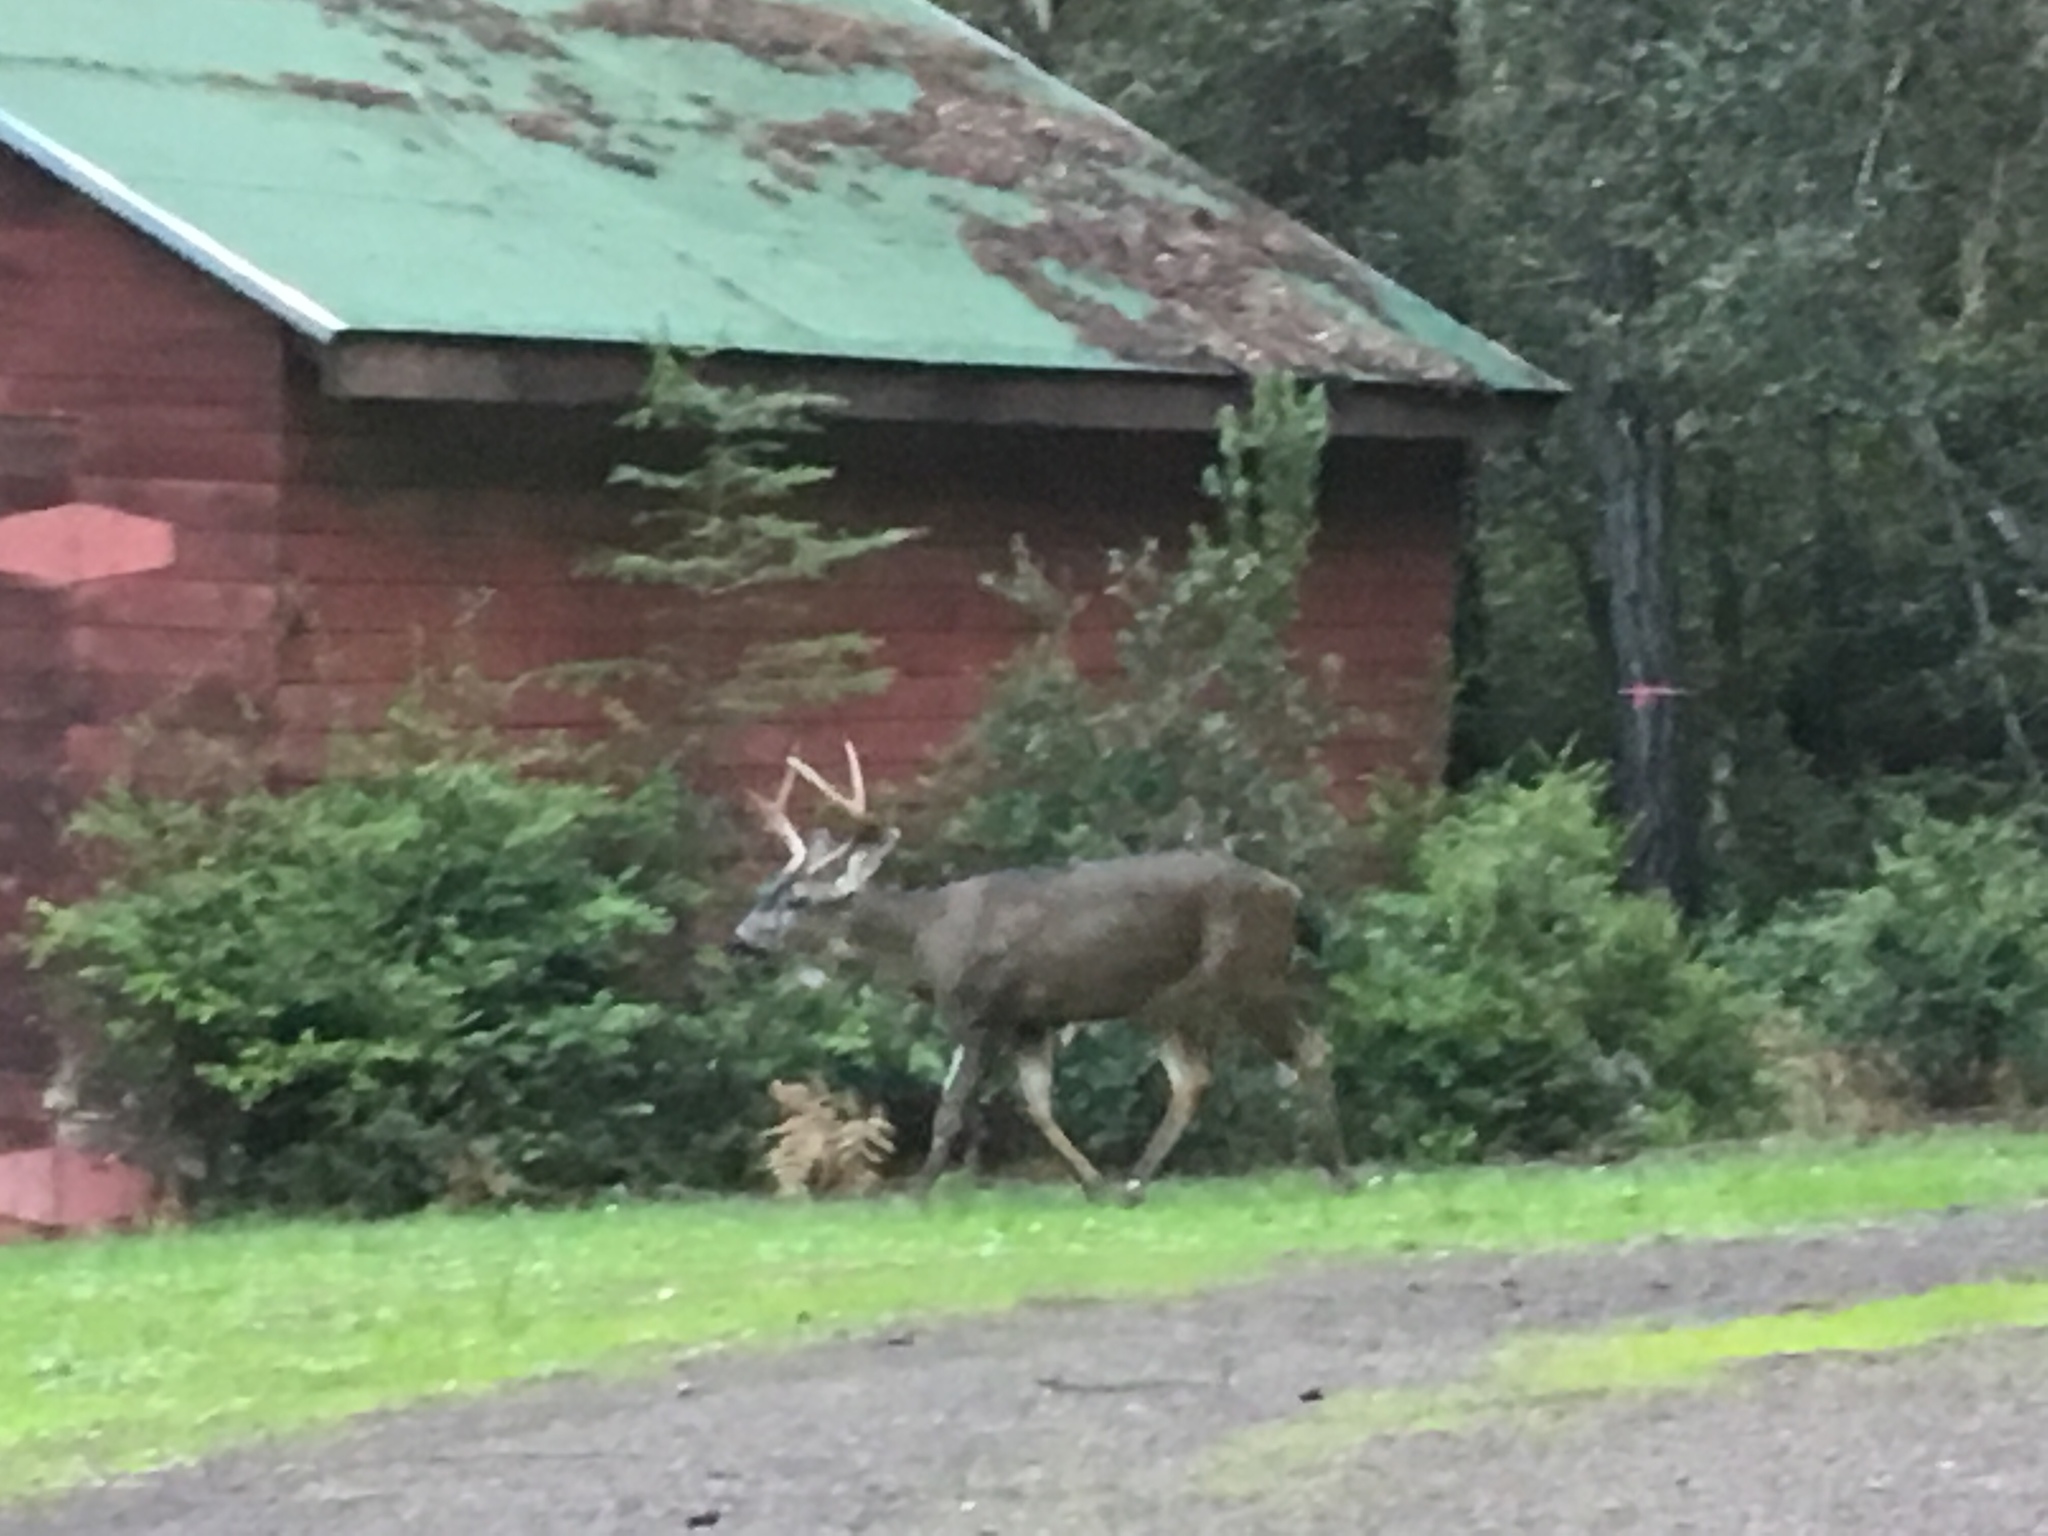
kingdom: Animalia
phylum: Chordata
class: Mammalia
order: Artiodactyla
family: Cervidae
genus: Odocoileus
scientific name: Odocoileus hemionus
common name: Mule deer
